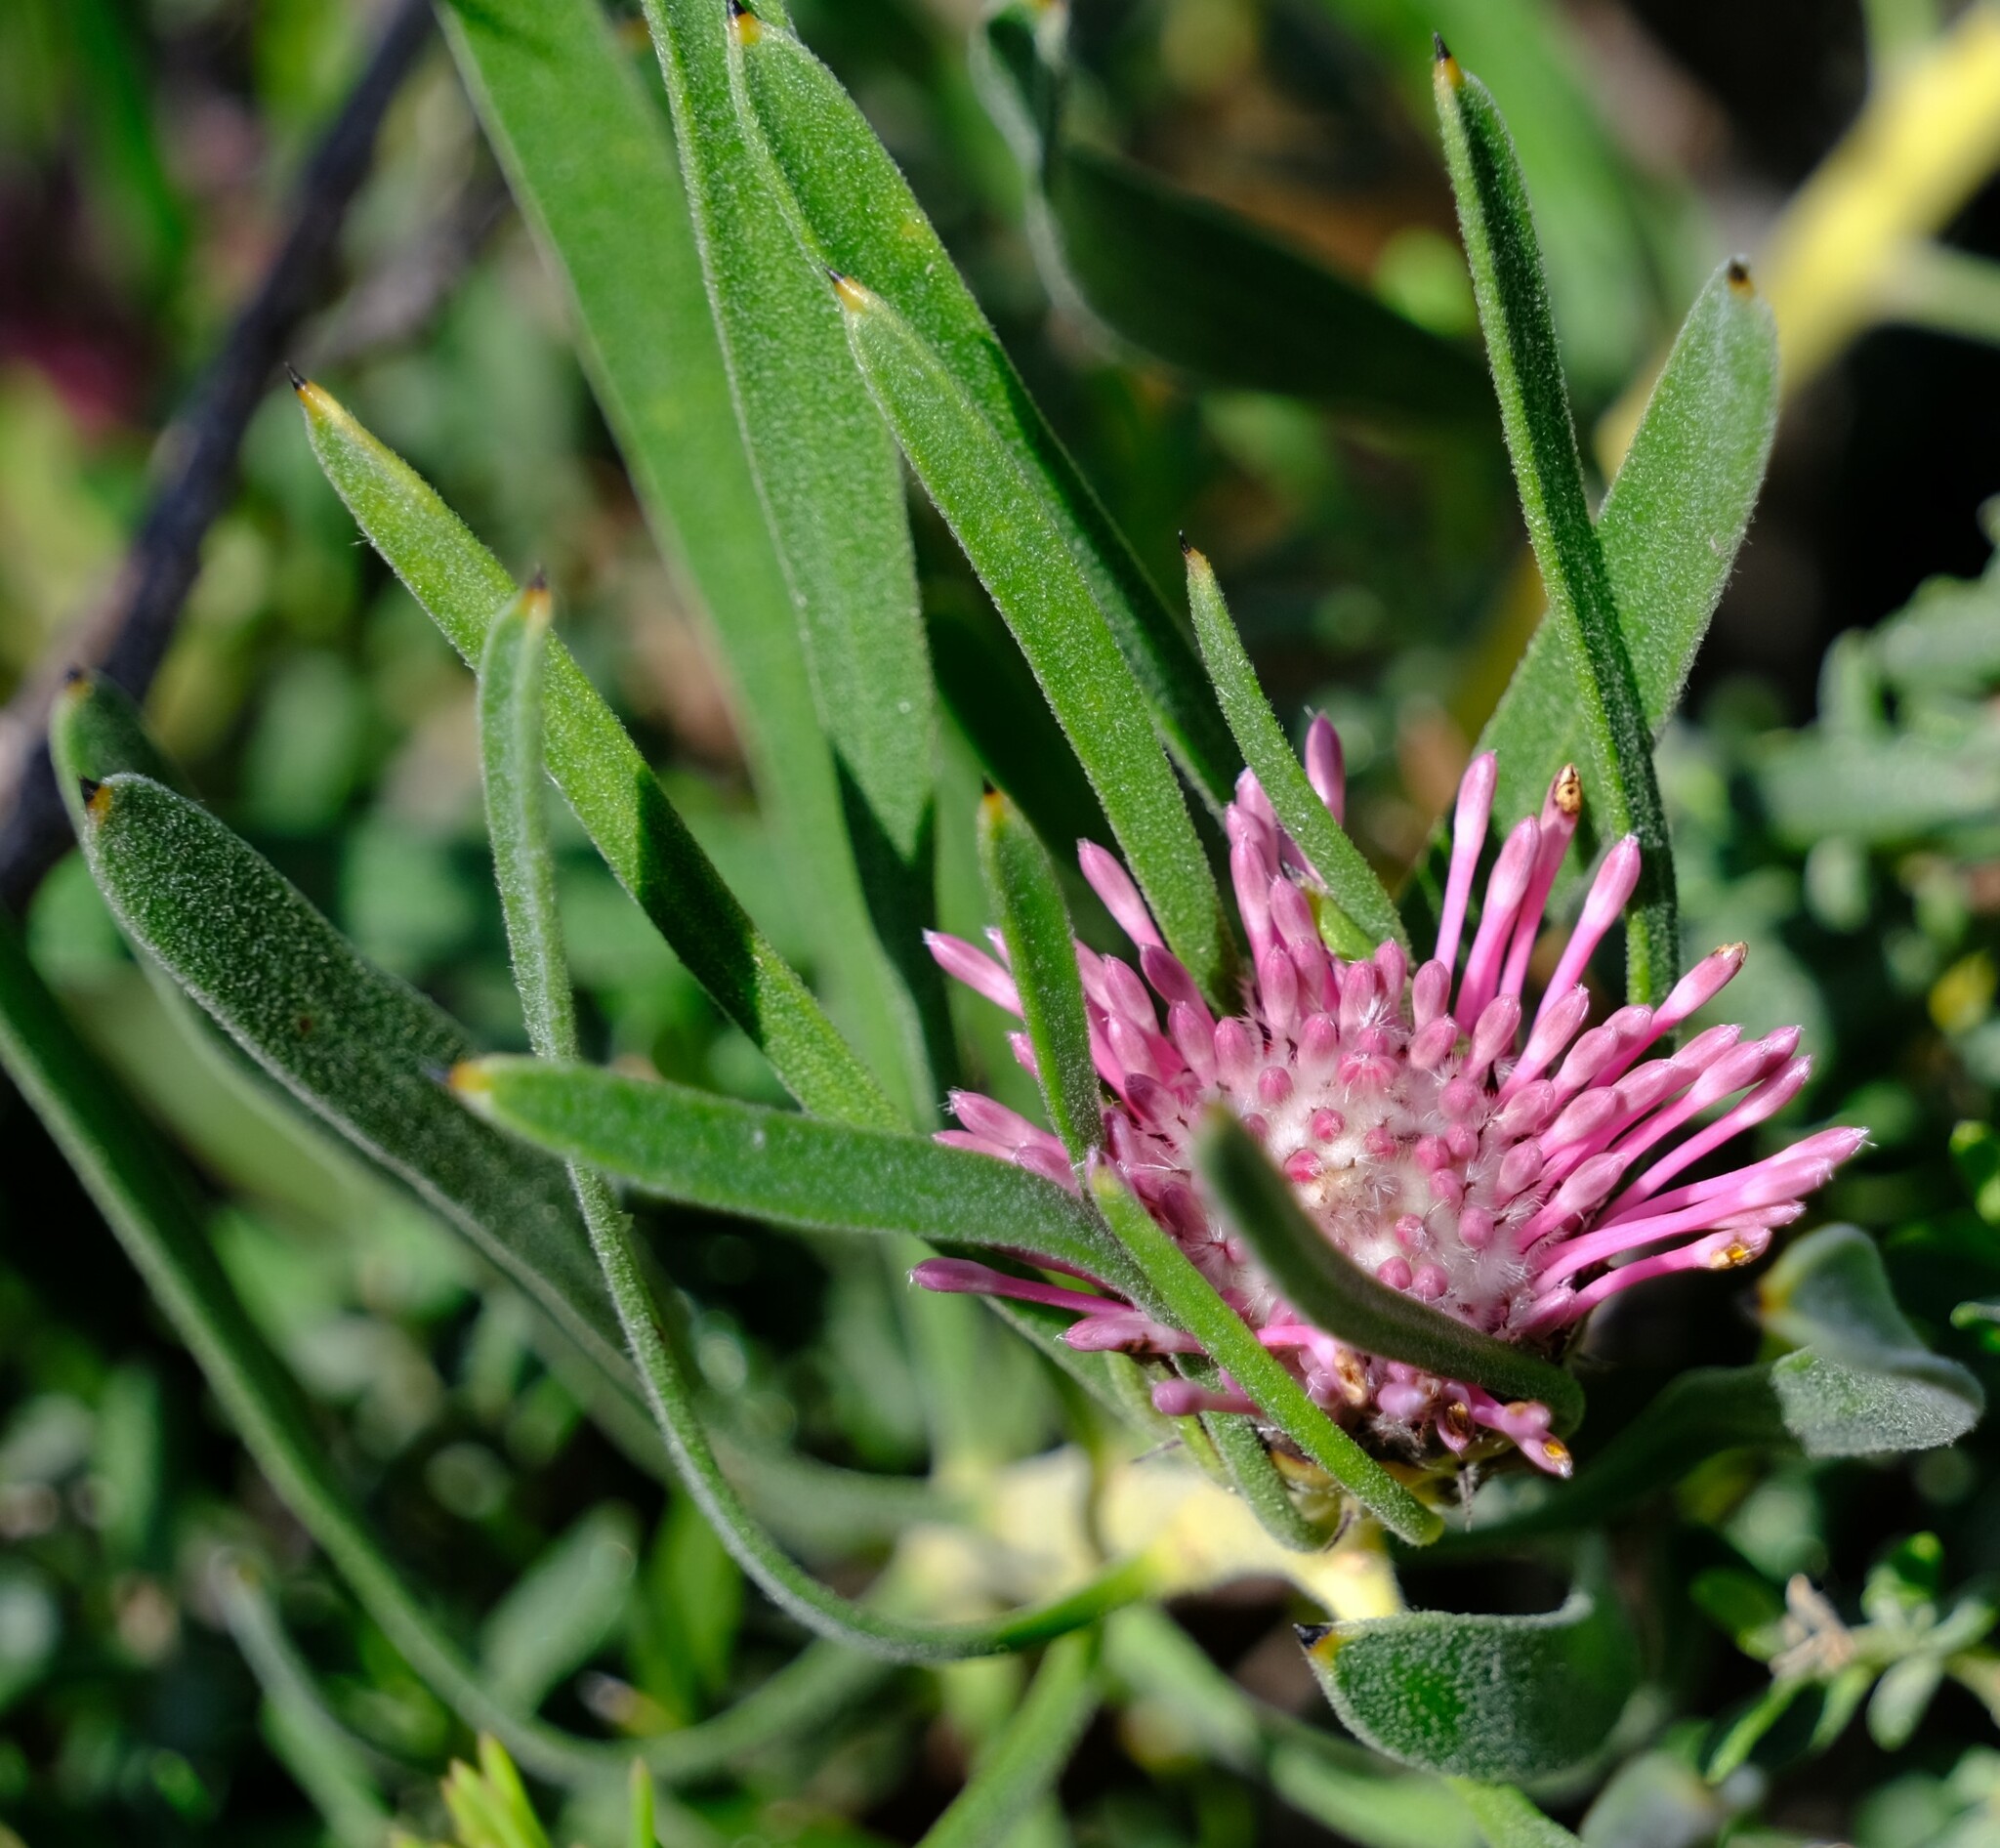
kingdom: Plantae
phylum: Tracheophyta
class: Magnoliopsida
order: Proteales
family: Proteaceae
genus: Isopogon
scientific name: Isopogon linearis
